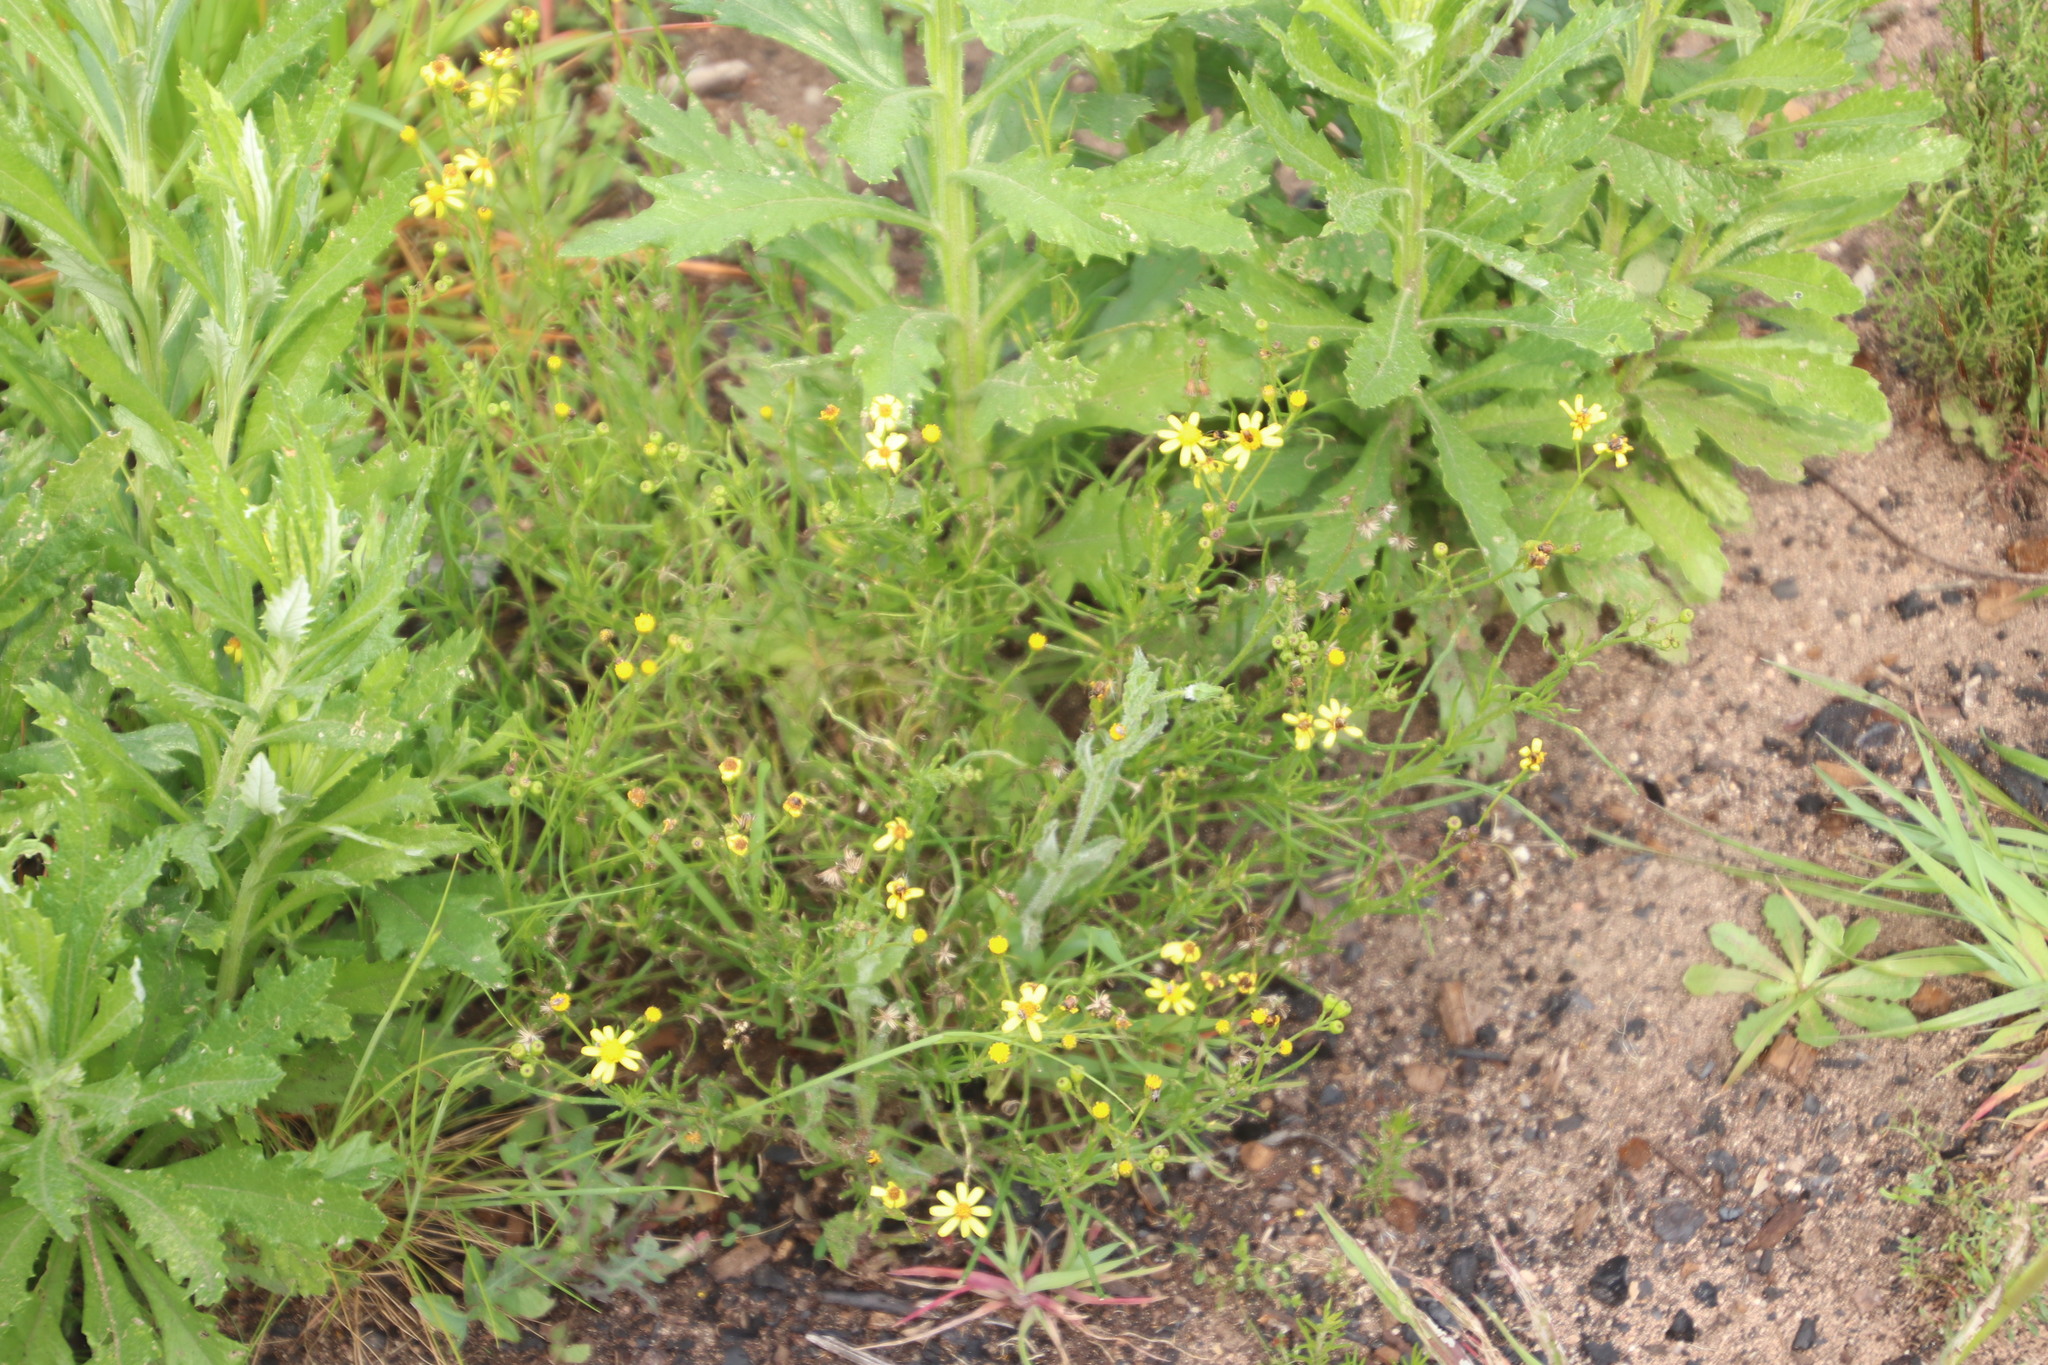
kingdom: Plantae
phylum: Tracheophyta
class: Magnoliopsida
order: Asterales
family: Asteraceae
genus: Senecio
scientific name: Senecio burchellii
